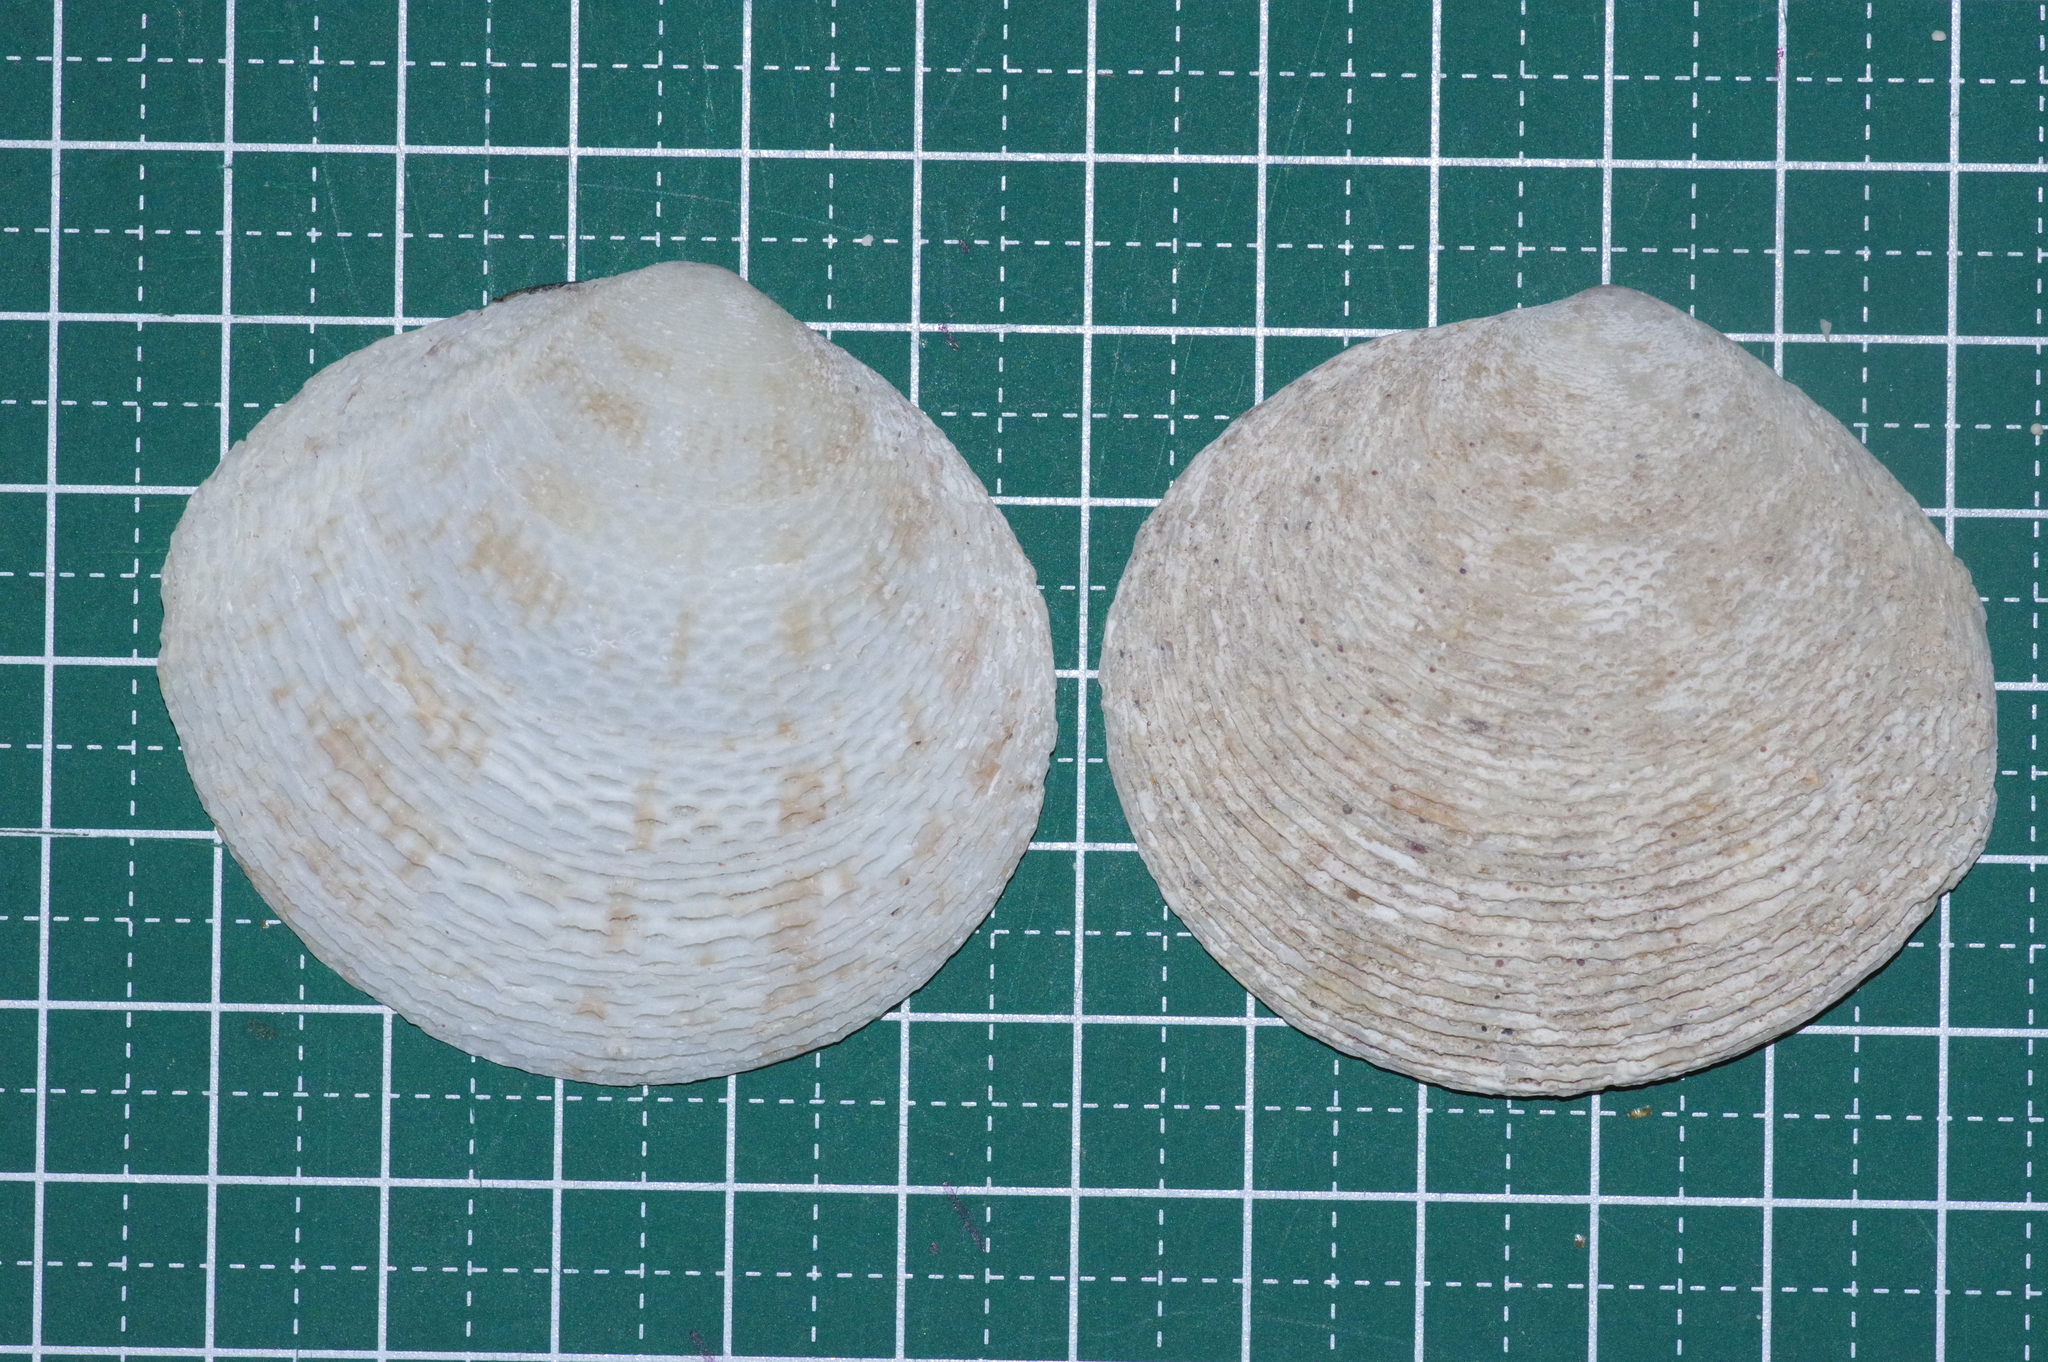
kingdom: Animalia
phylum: Mollusca
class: Bivalvia
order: Cardiida
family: Tellinidae
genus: Scutarcopagia
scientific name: Scutarcopagia scobinata
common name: Rasp tellin
